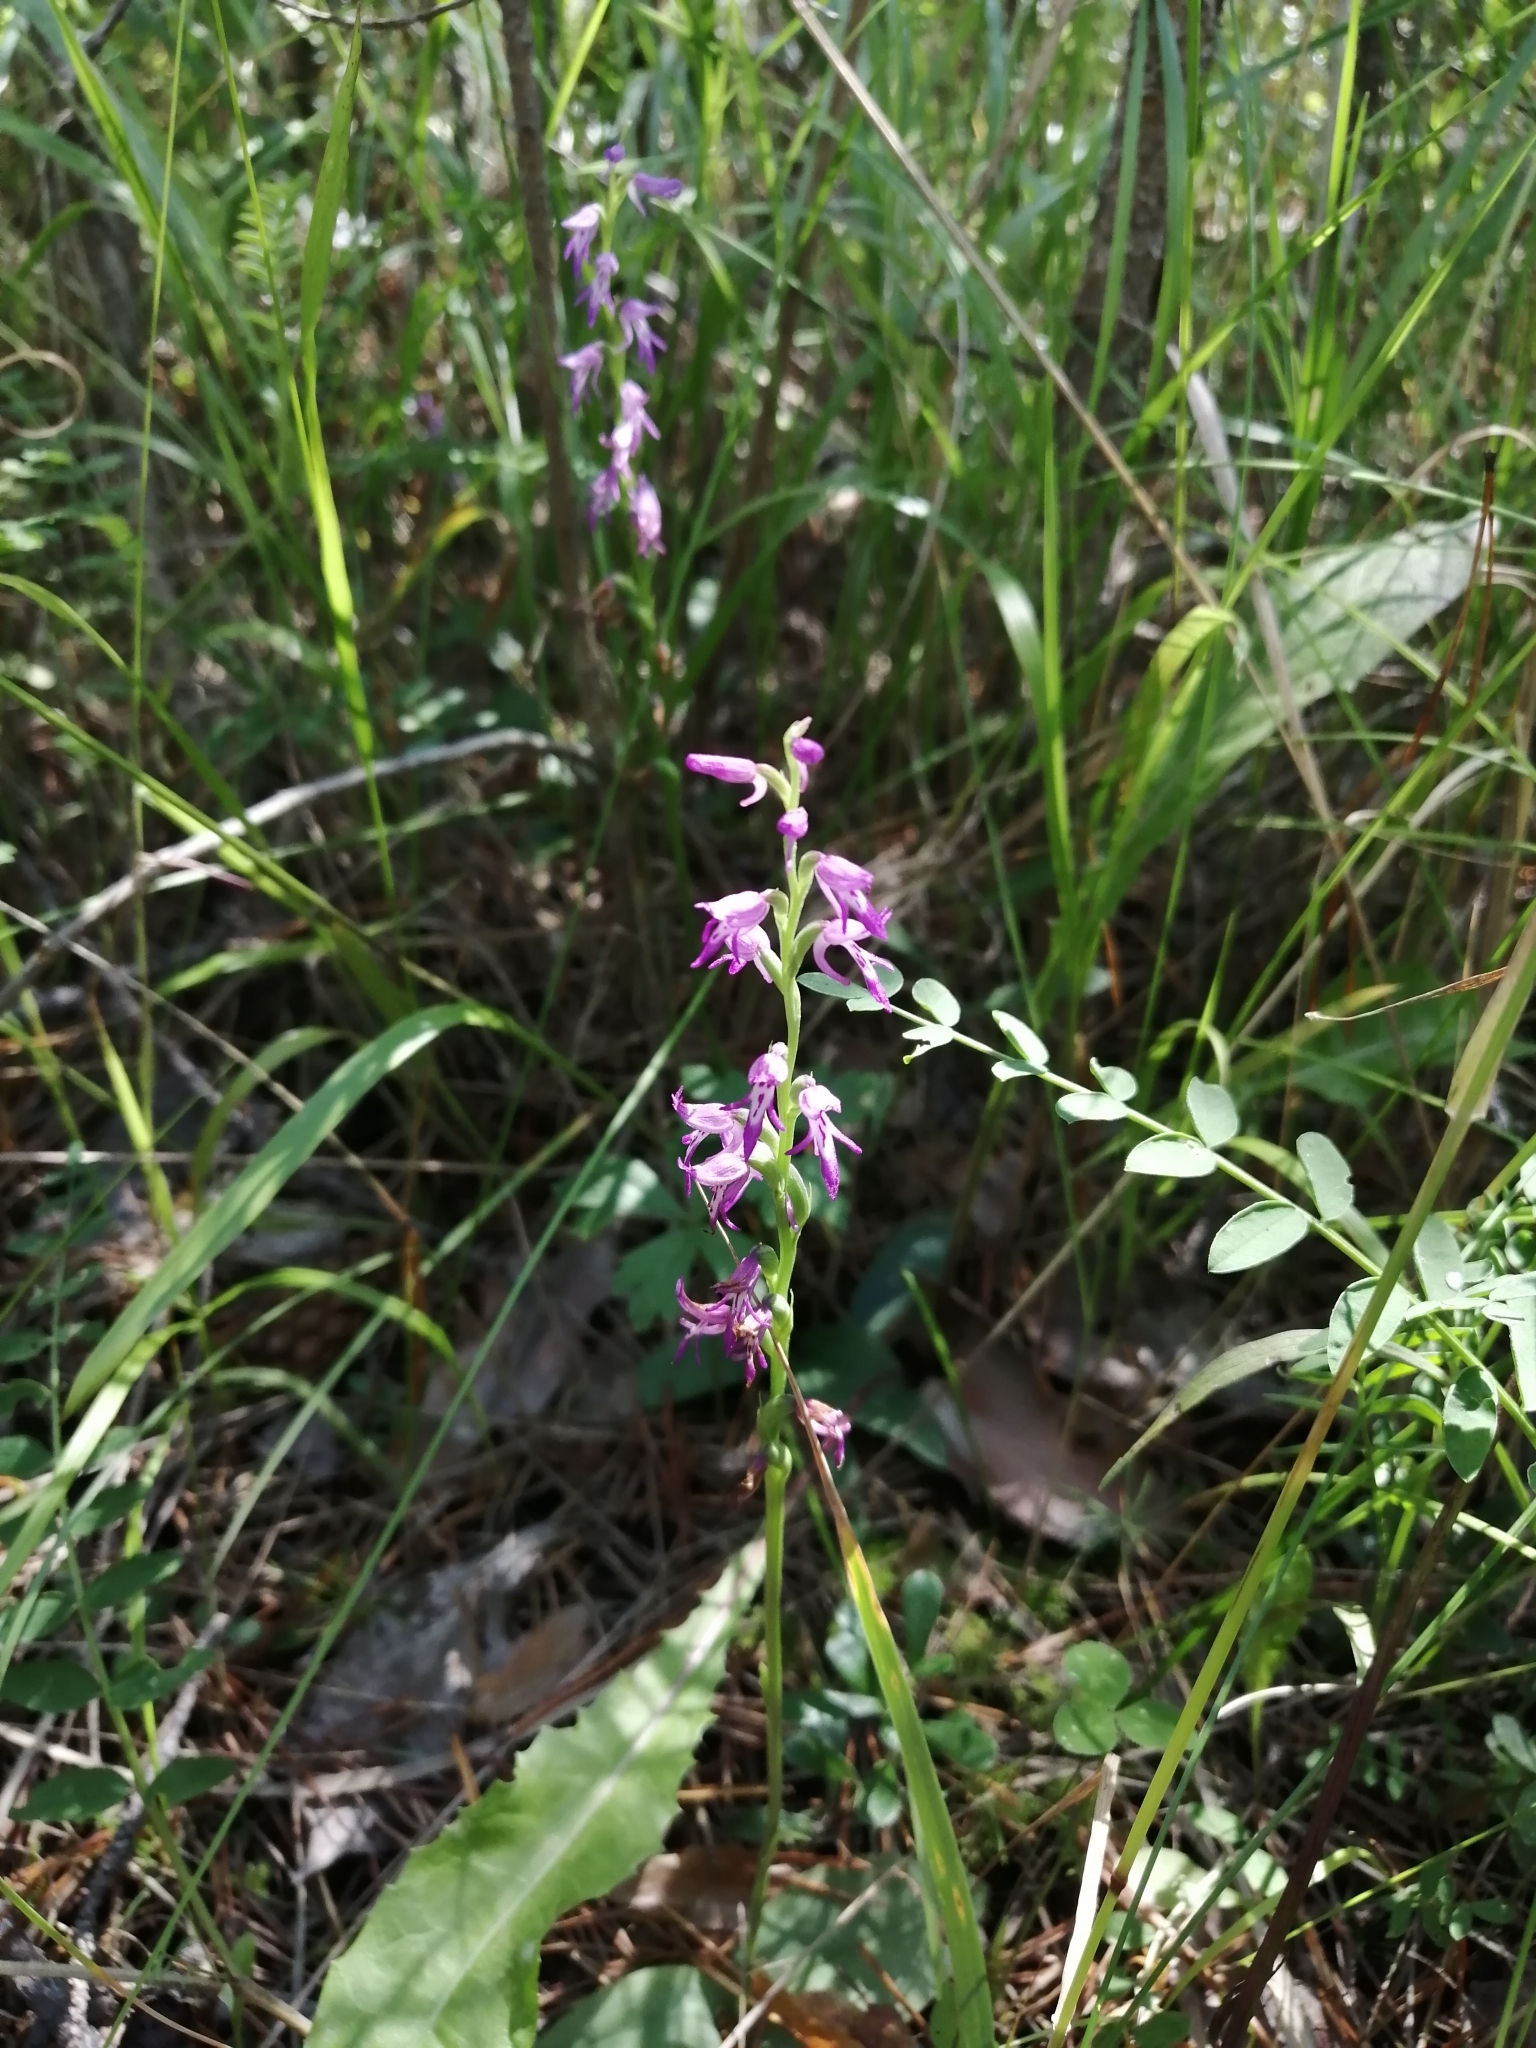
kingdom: Plantae
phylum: Tracheophyta
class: Liliopsida
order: Asparagales
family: Orchidaceae
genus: Hemipilia
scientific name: Hemipilia cucullata
